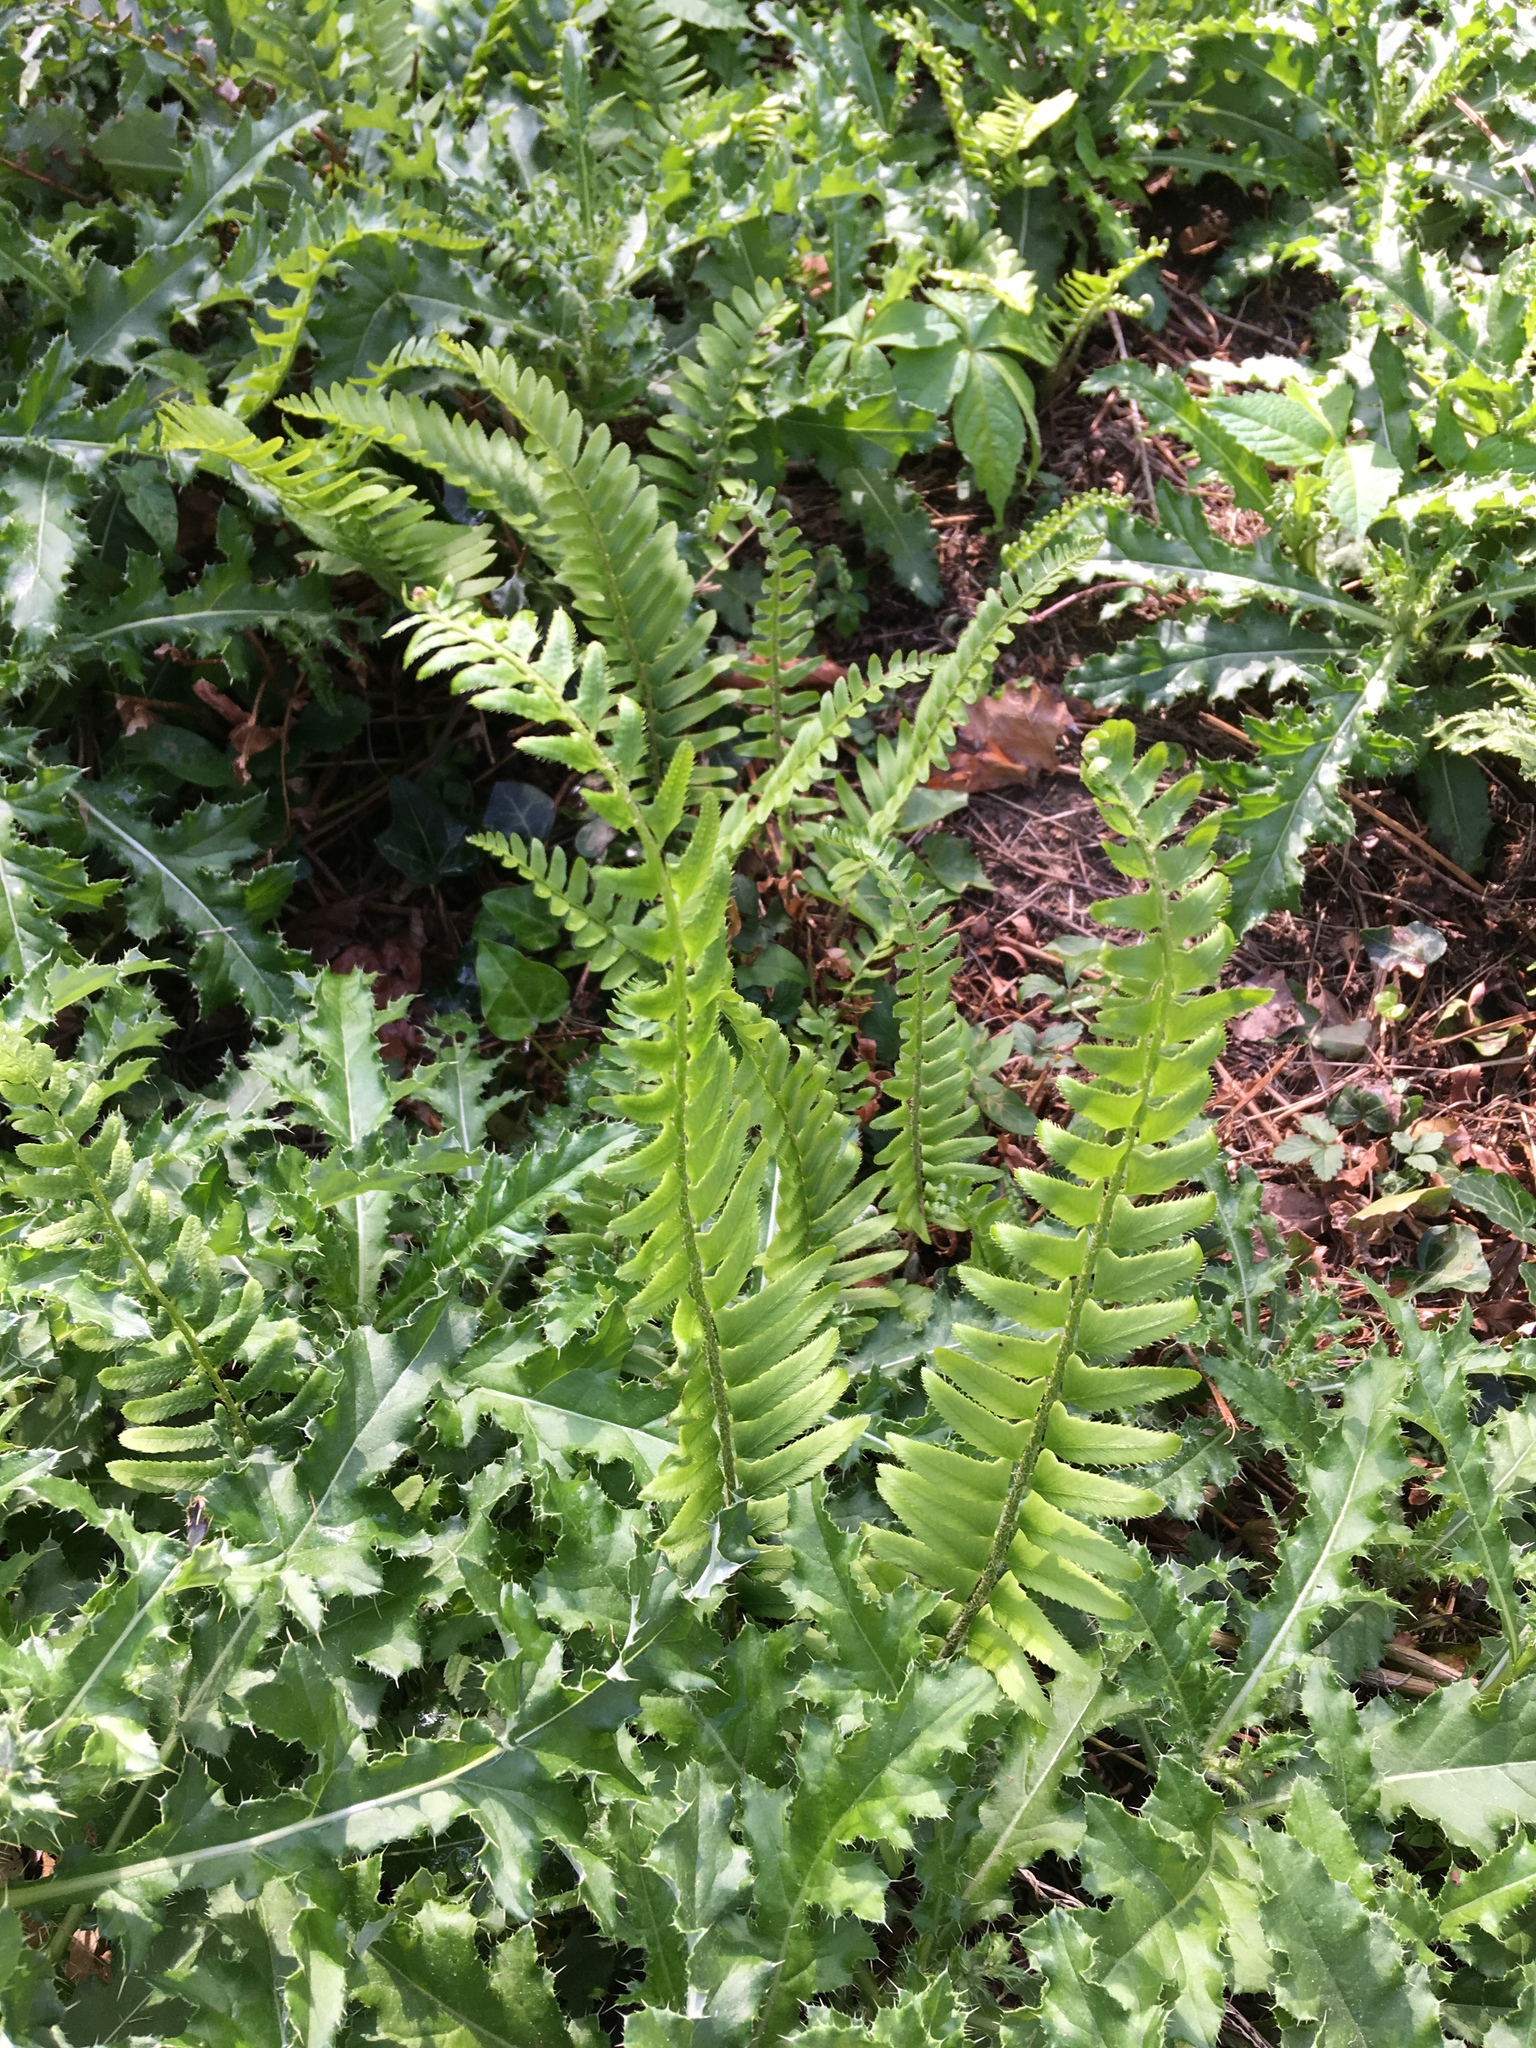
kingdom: Plantae
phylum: Tracheophyta
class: Polypodiopsida
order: Polypodiales
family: Dryopteridaceae
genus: Polystichum
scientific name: Polystichum acrostichoides
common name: Christmas fern
